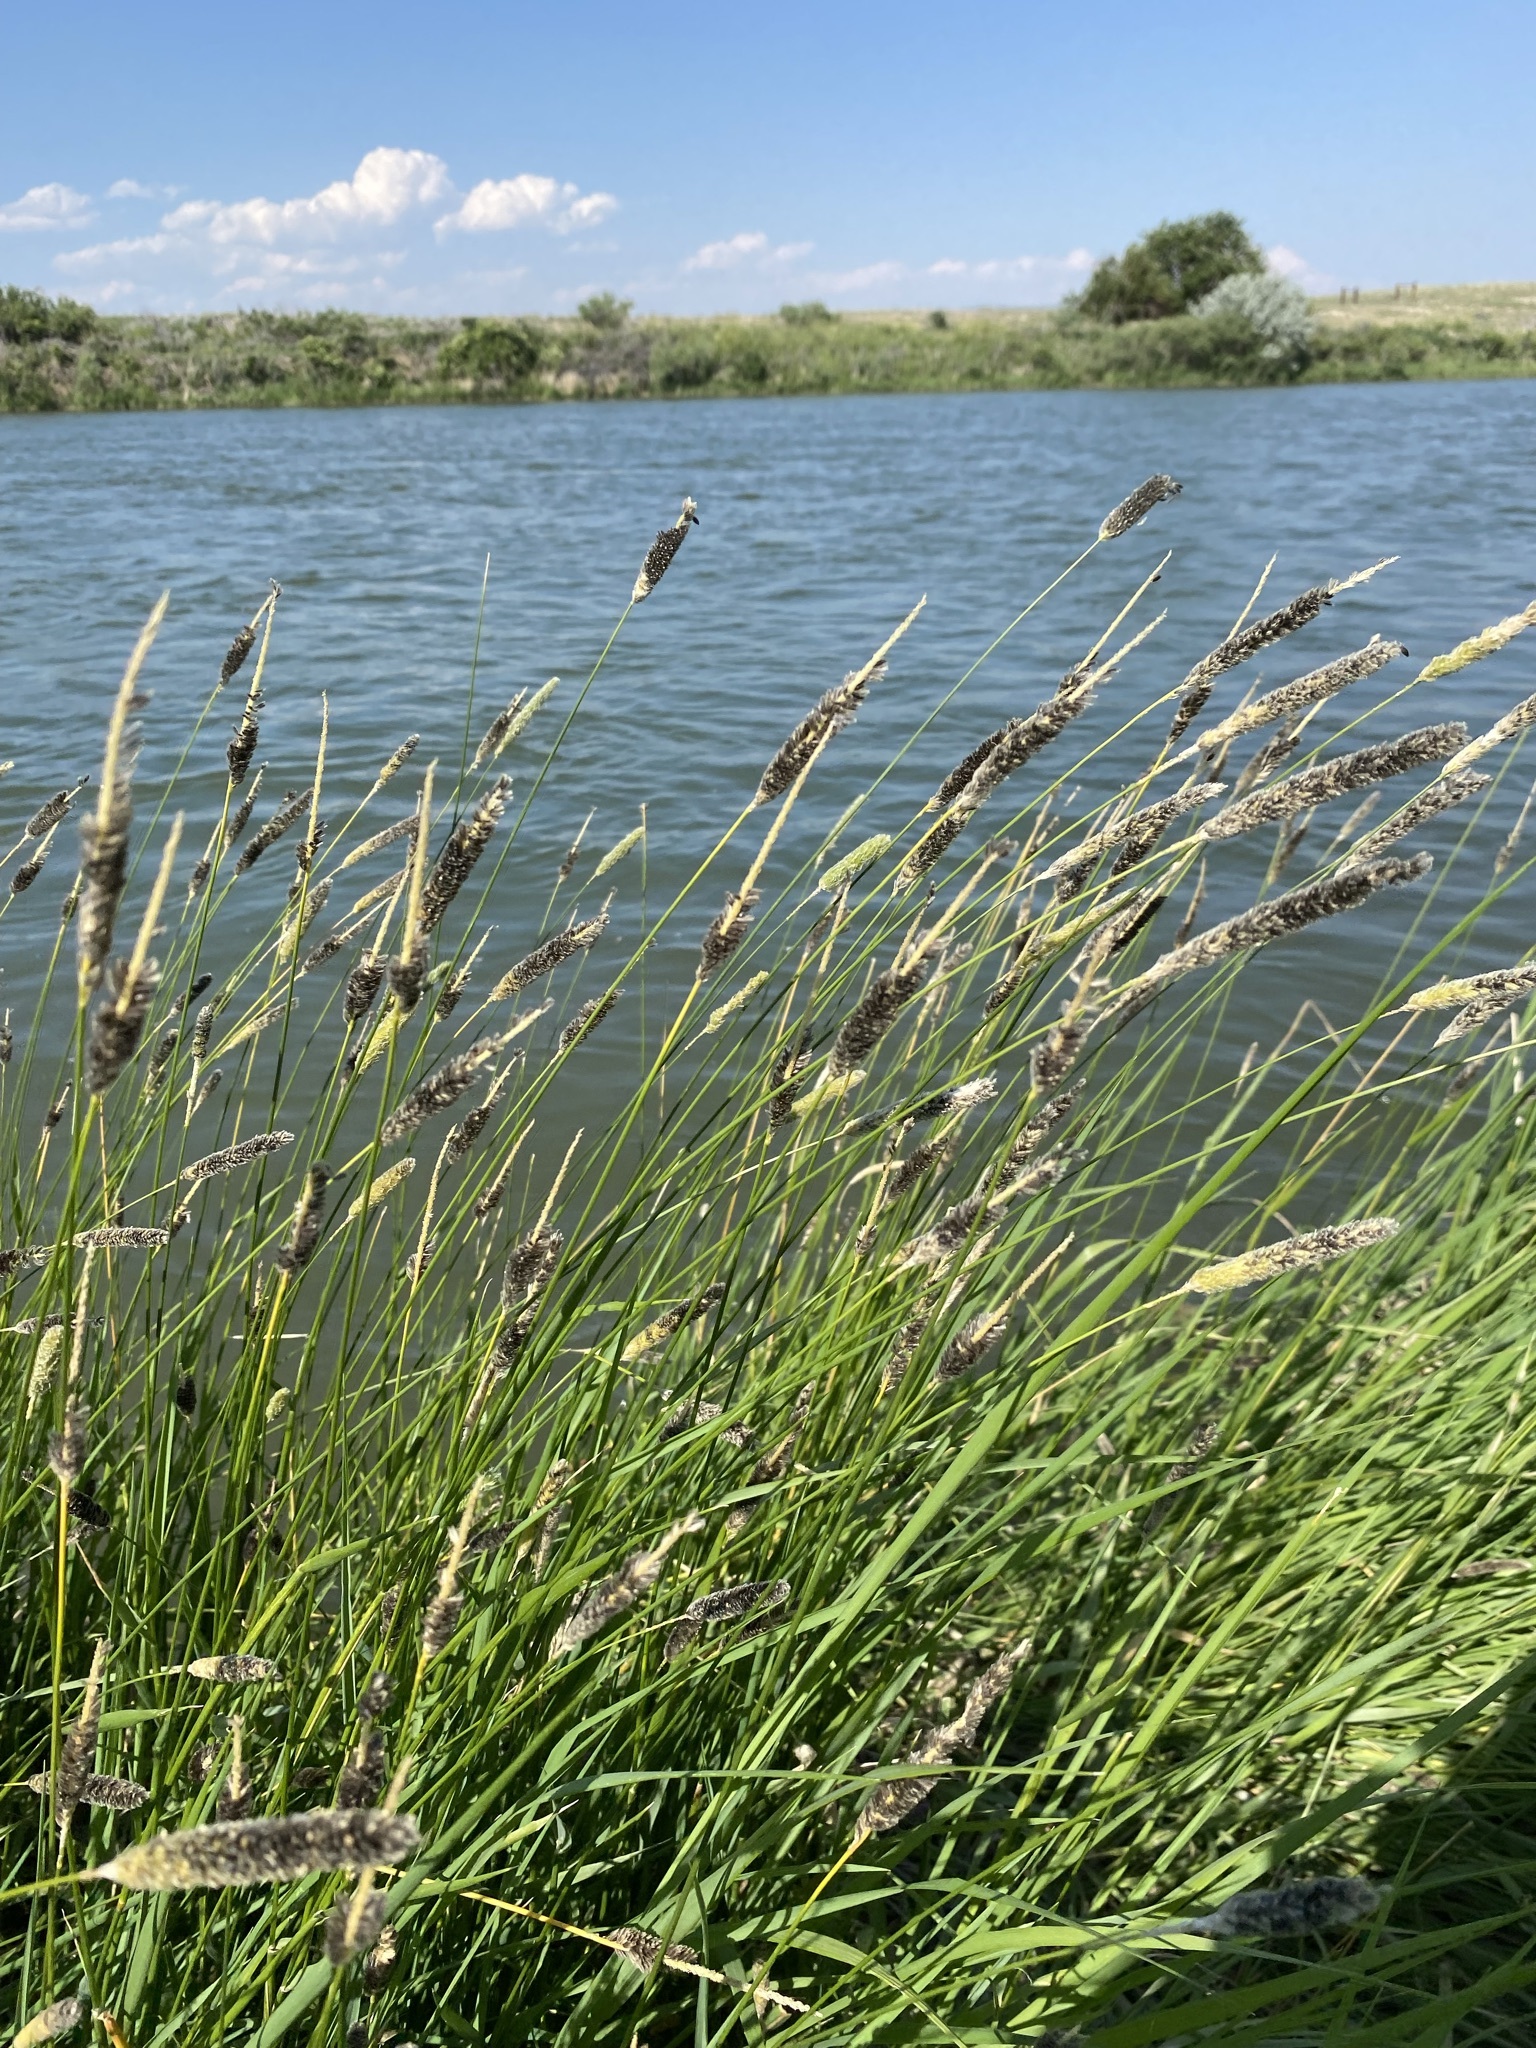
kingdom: Plantae
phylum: Tracheophyta
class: Liliopsida
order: Poales
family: Poaceae
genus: Alopecurus
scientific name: Alopecurus arundinaceus
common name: Creeping meadow foxtail
